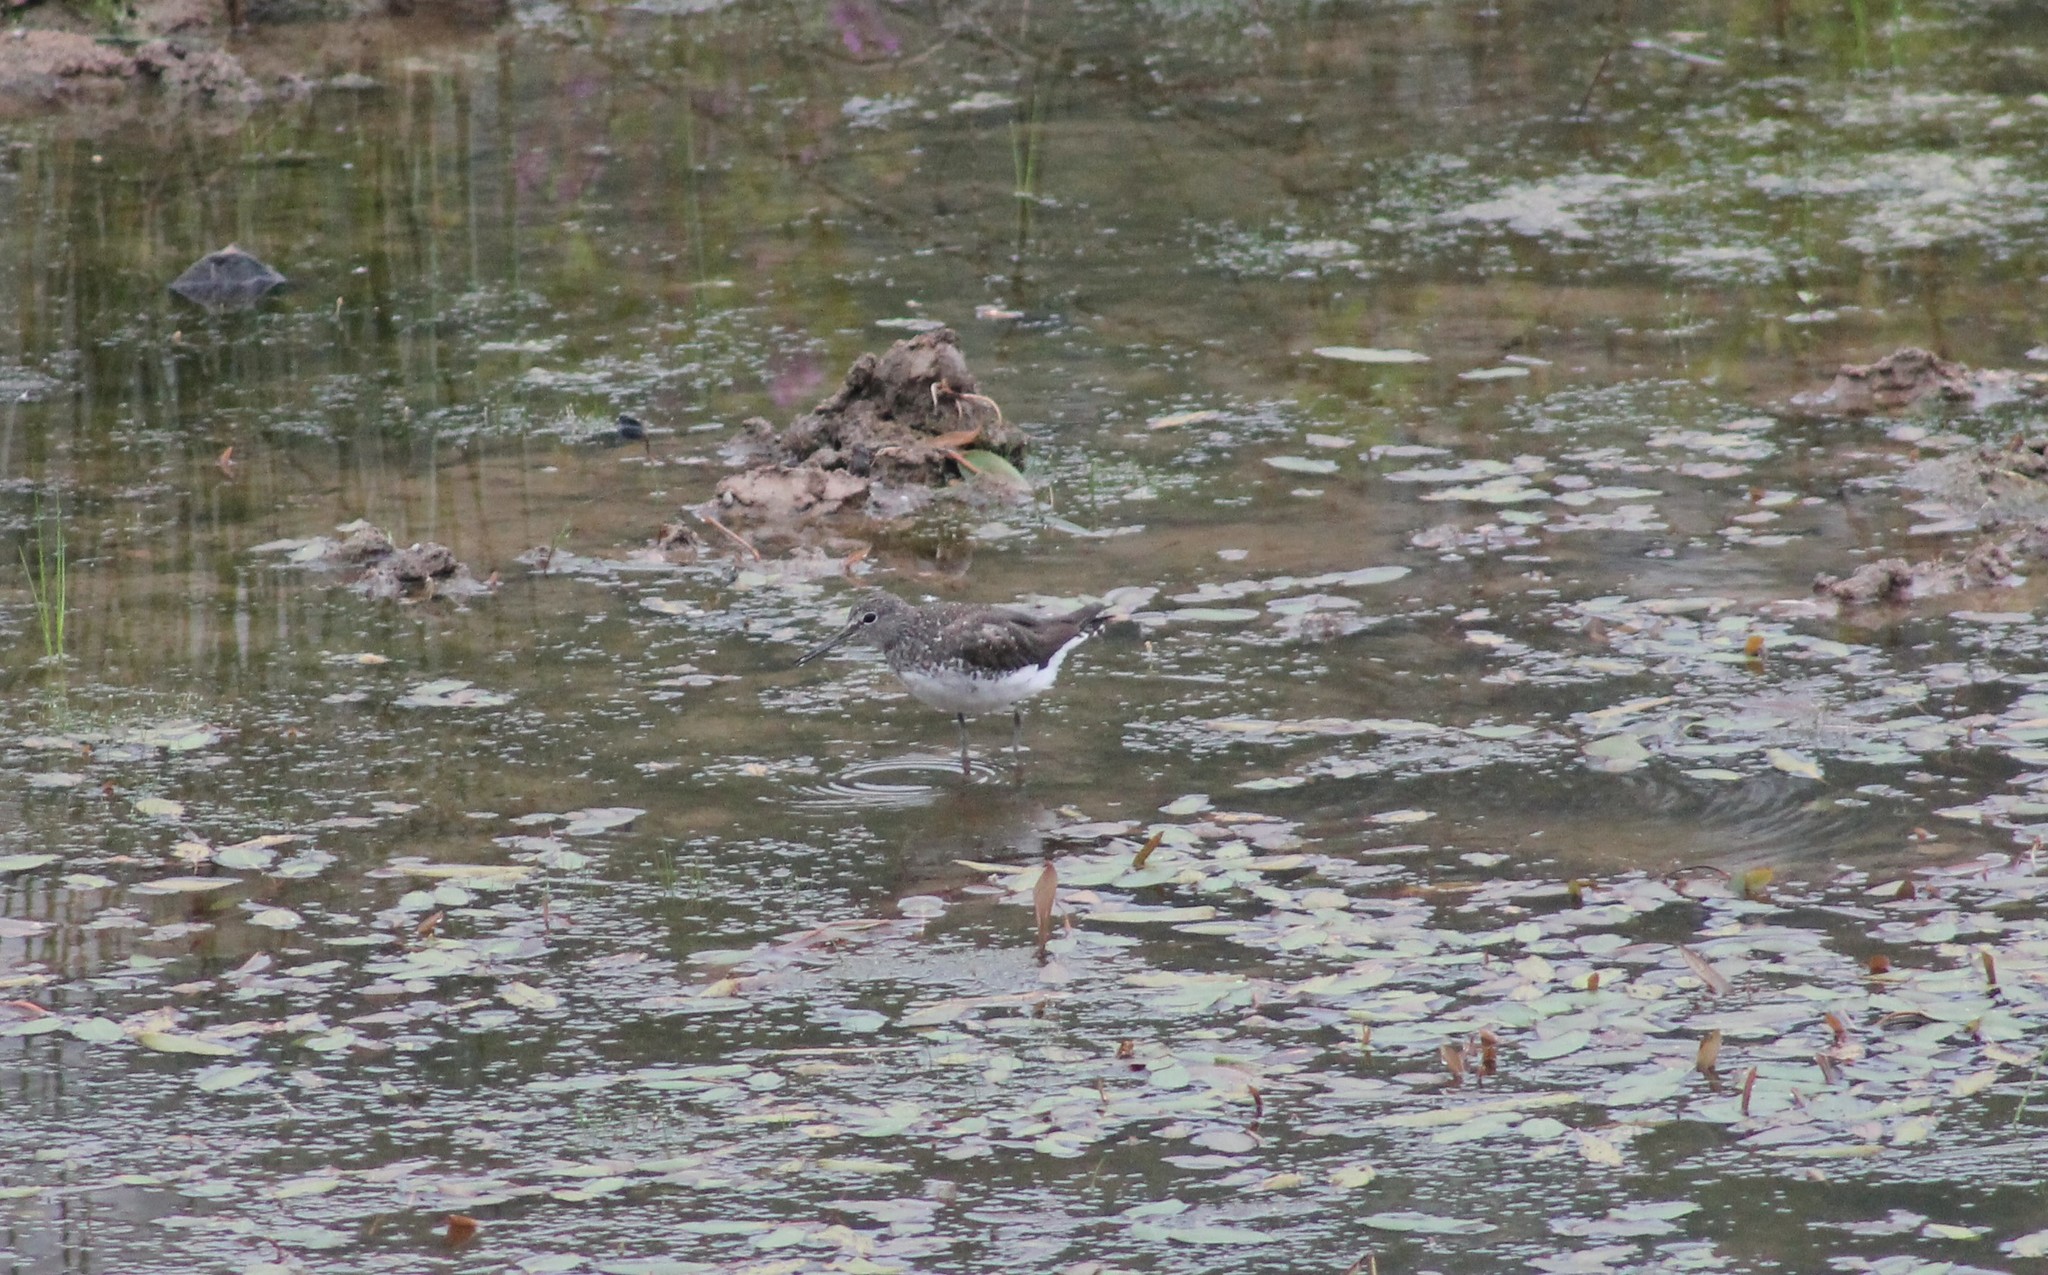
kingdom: Animalia
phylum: Chordata
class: Aves
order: Charadriiformes
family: Scolopacidae
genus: Tringa
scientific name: Tringa ochropus
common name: Green sandpiper
